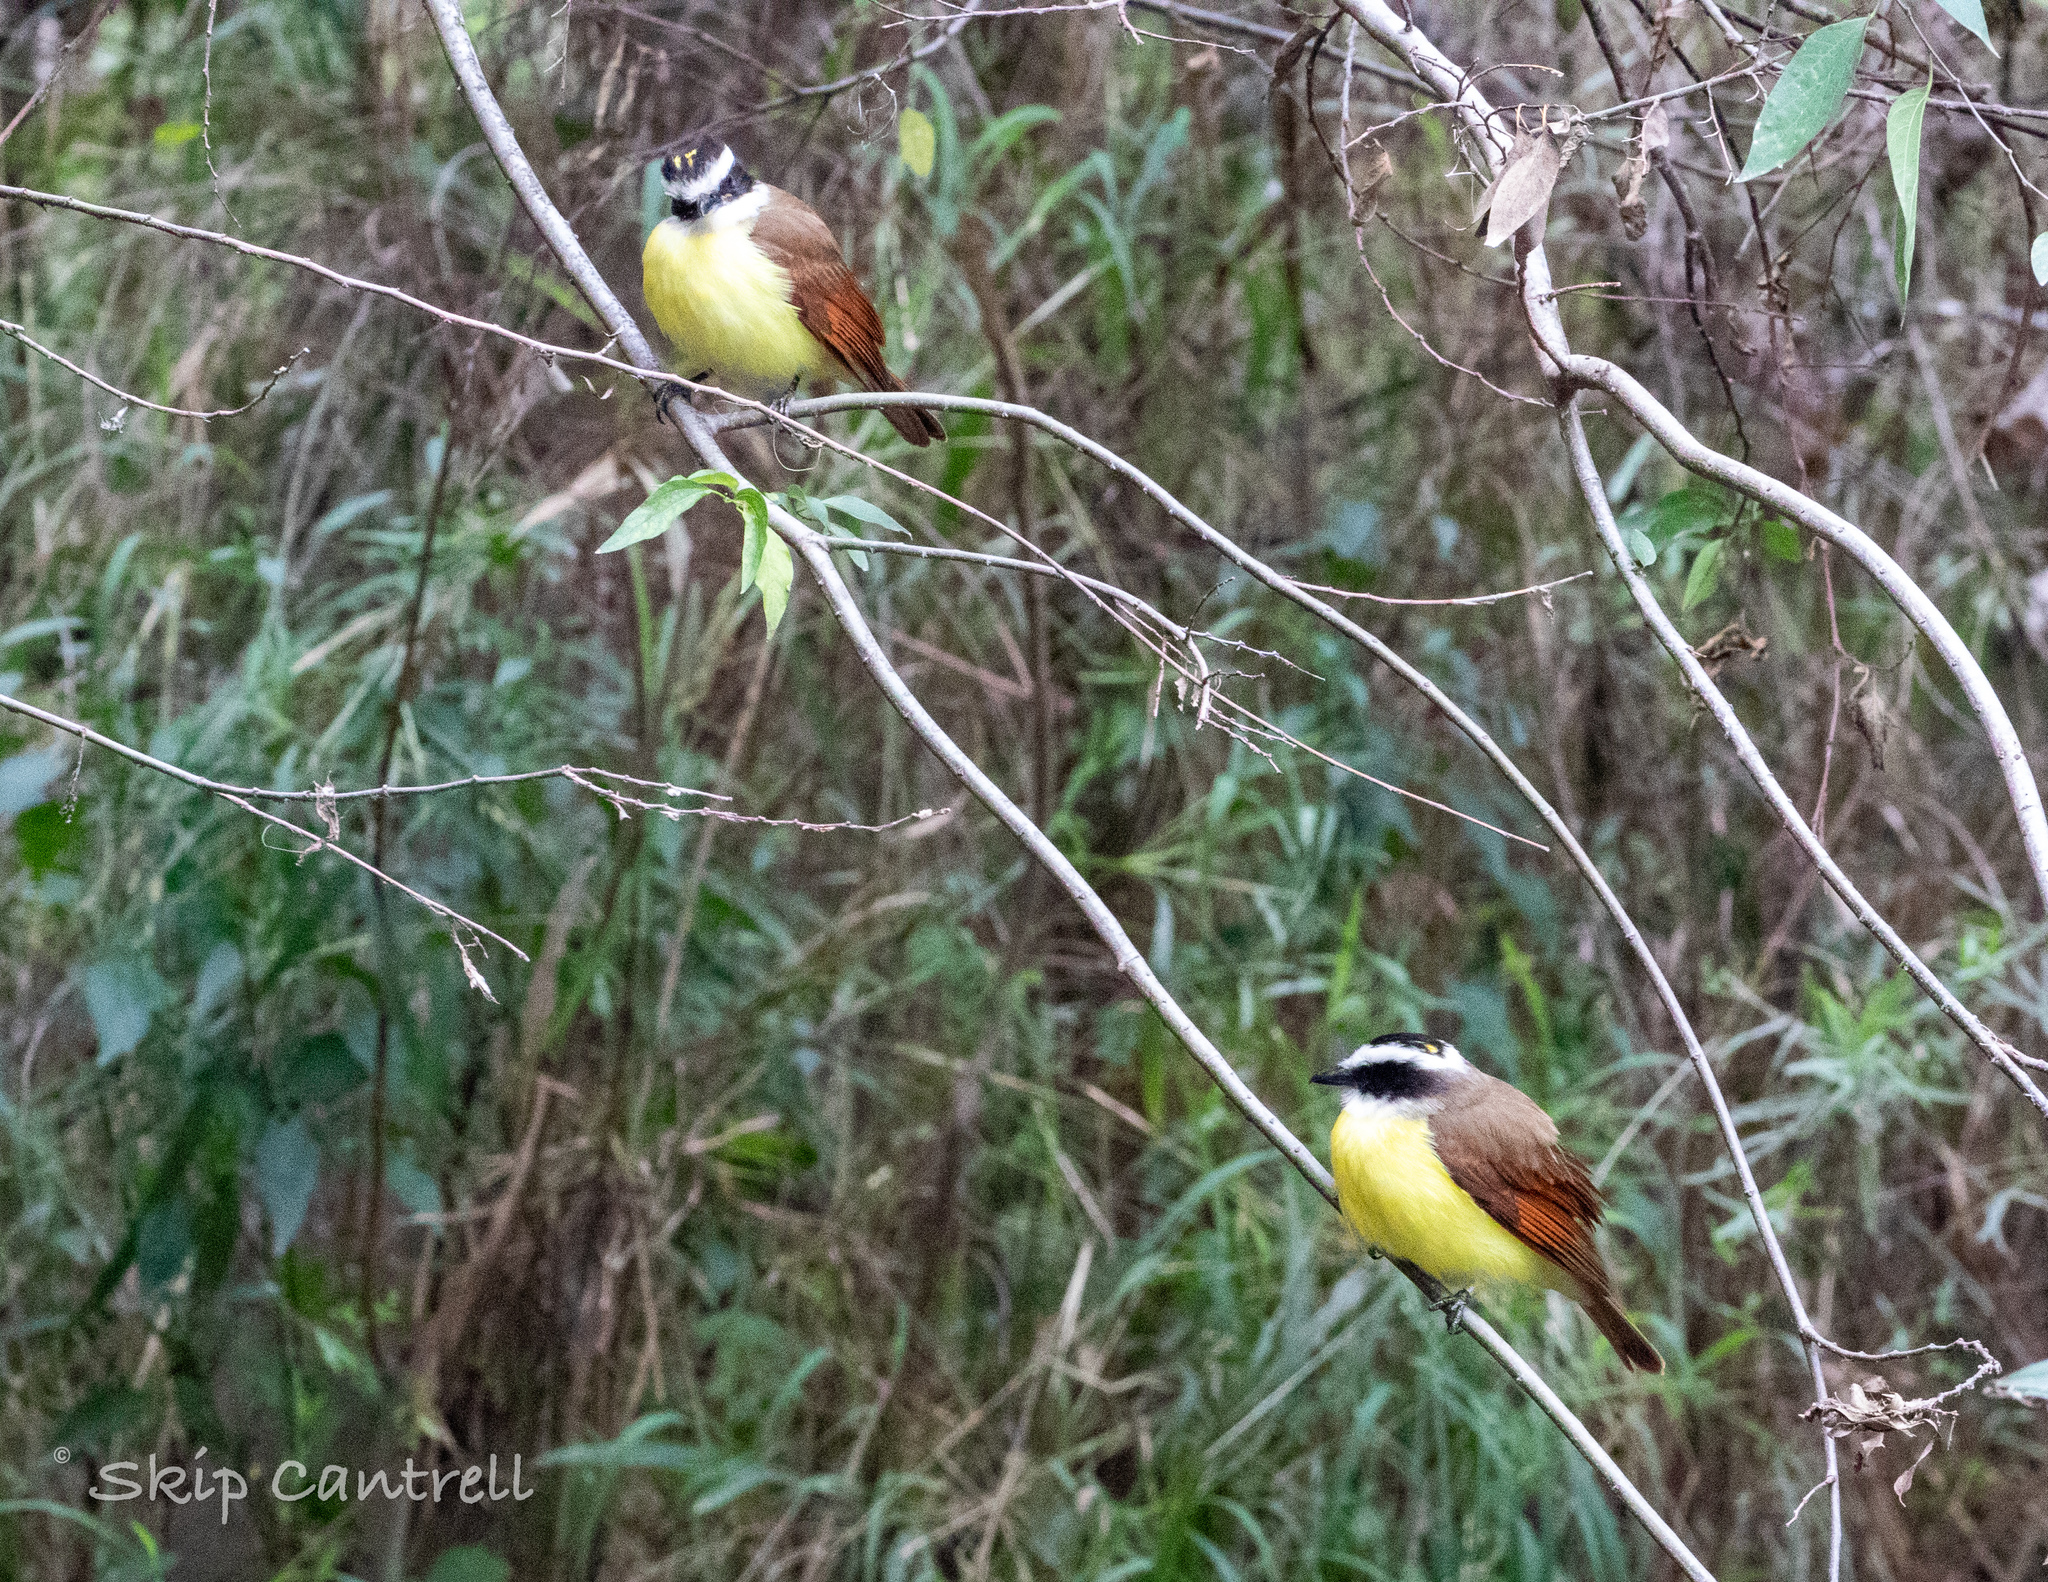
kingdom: Animalia
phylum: Chordata
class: Aves
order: Passeriformes
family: Tyrannidae
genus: Pitangus
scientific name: Pitangus sulphuratus
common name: Great kiskadee
